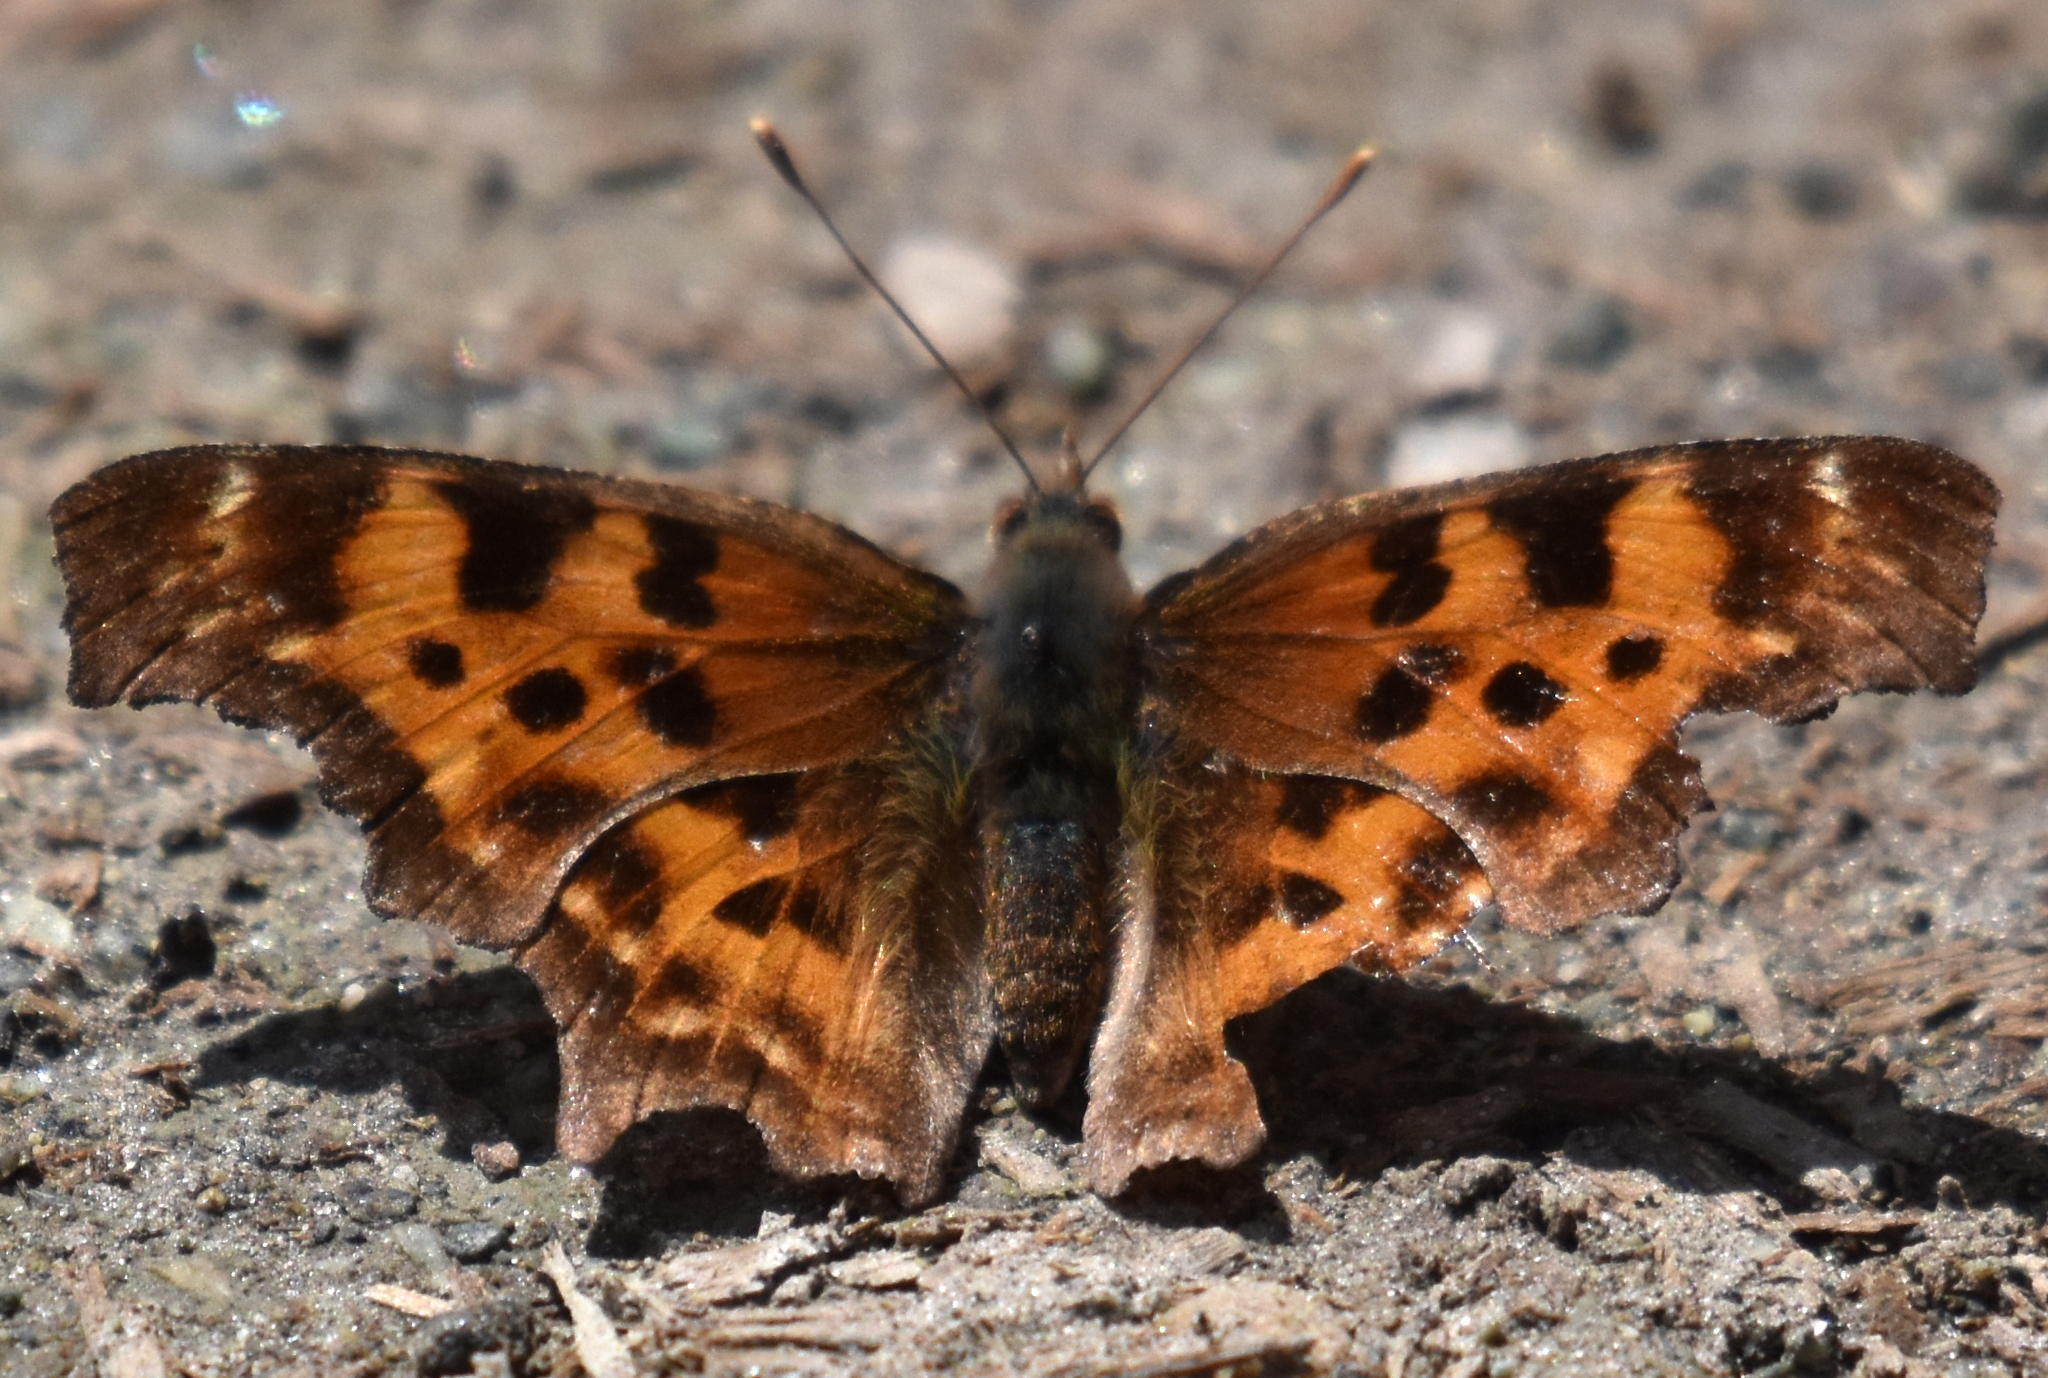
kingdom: Animalia
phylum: Arthropoda
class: Insecta
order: Lepidoptera
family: Nymphalidae
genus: Polygonia
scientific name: Polygonia satyrus
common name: Satyr angle wing
